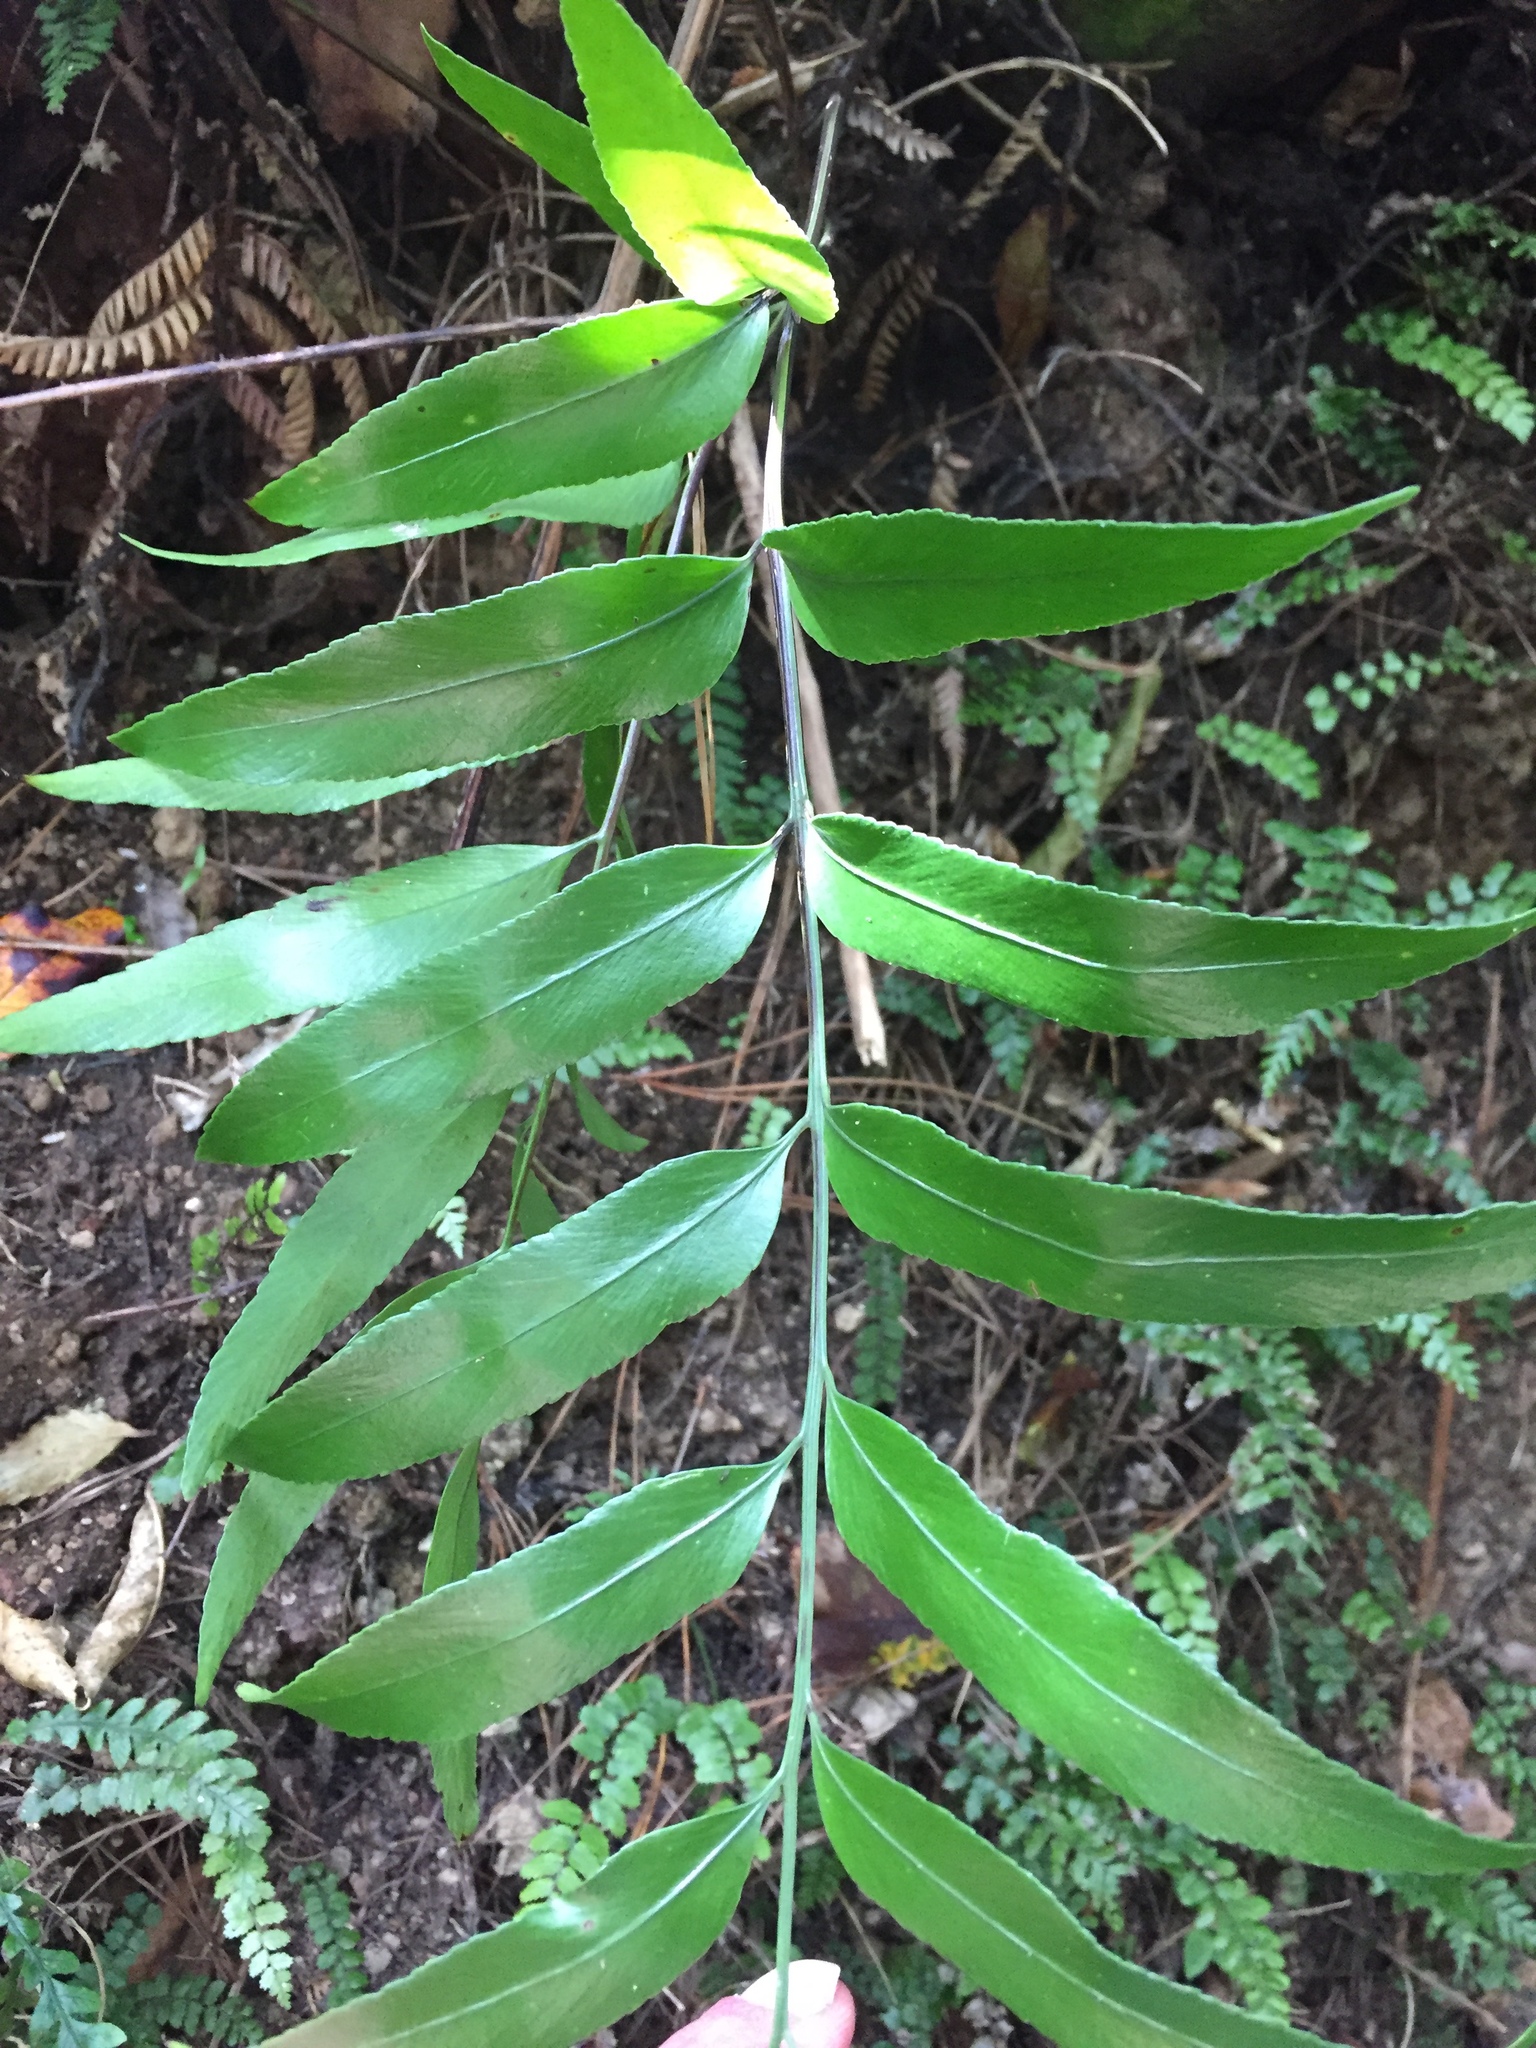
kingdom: Plantae
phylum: Tracheophyta
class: Polypodiopsida
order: Polypodiales
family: Aspleniaceae
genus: Asplenium
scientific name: Asplenium oblongifolium
